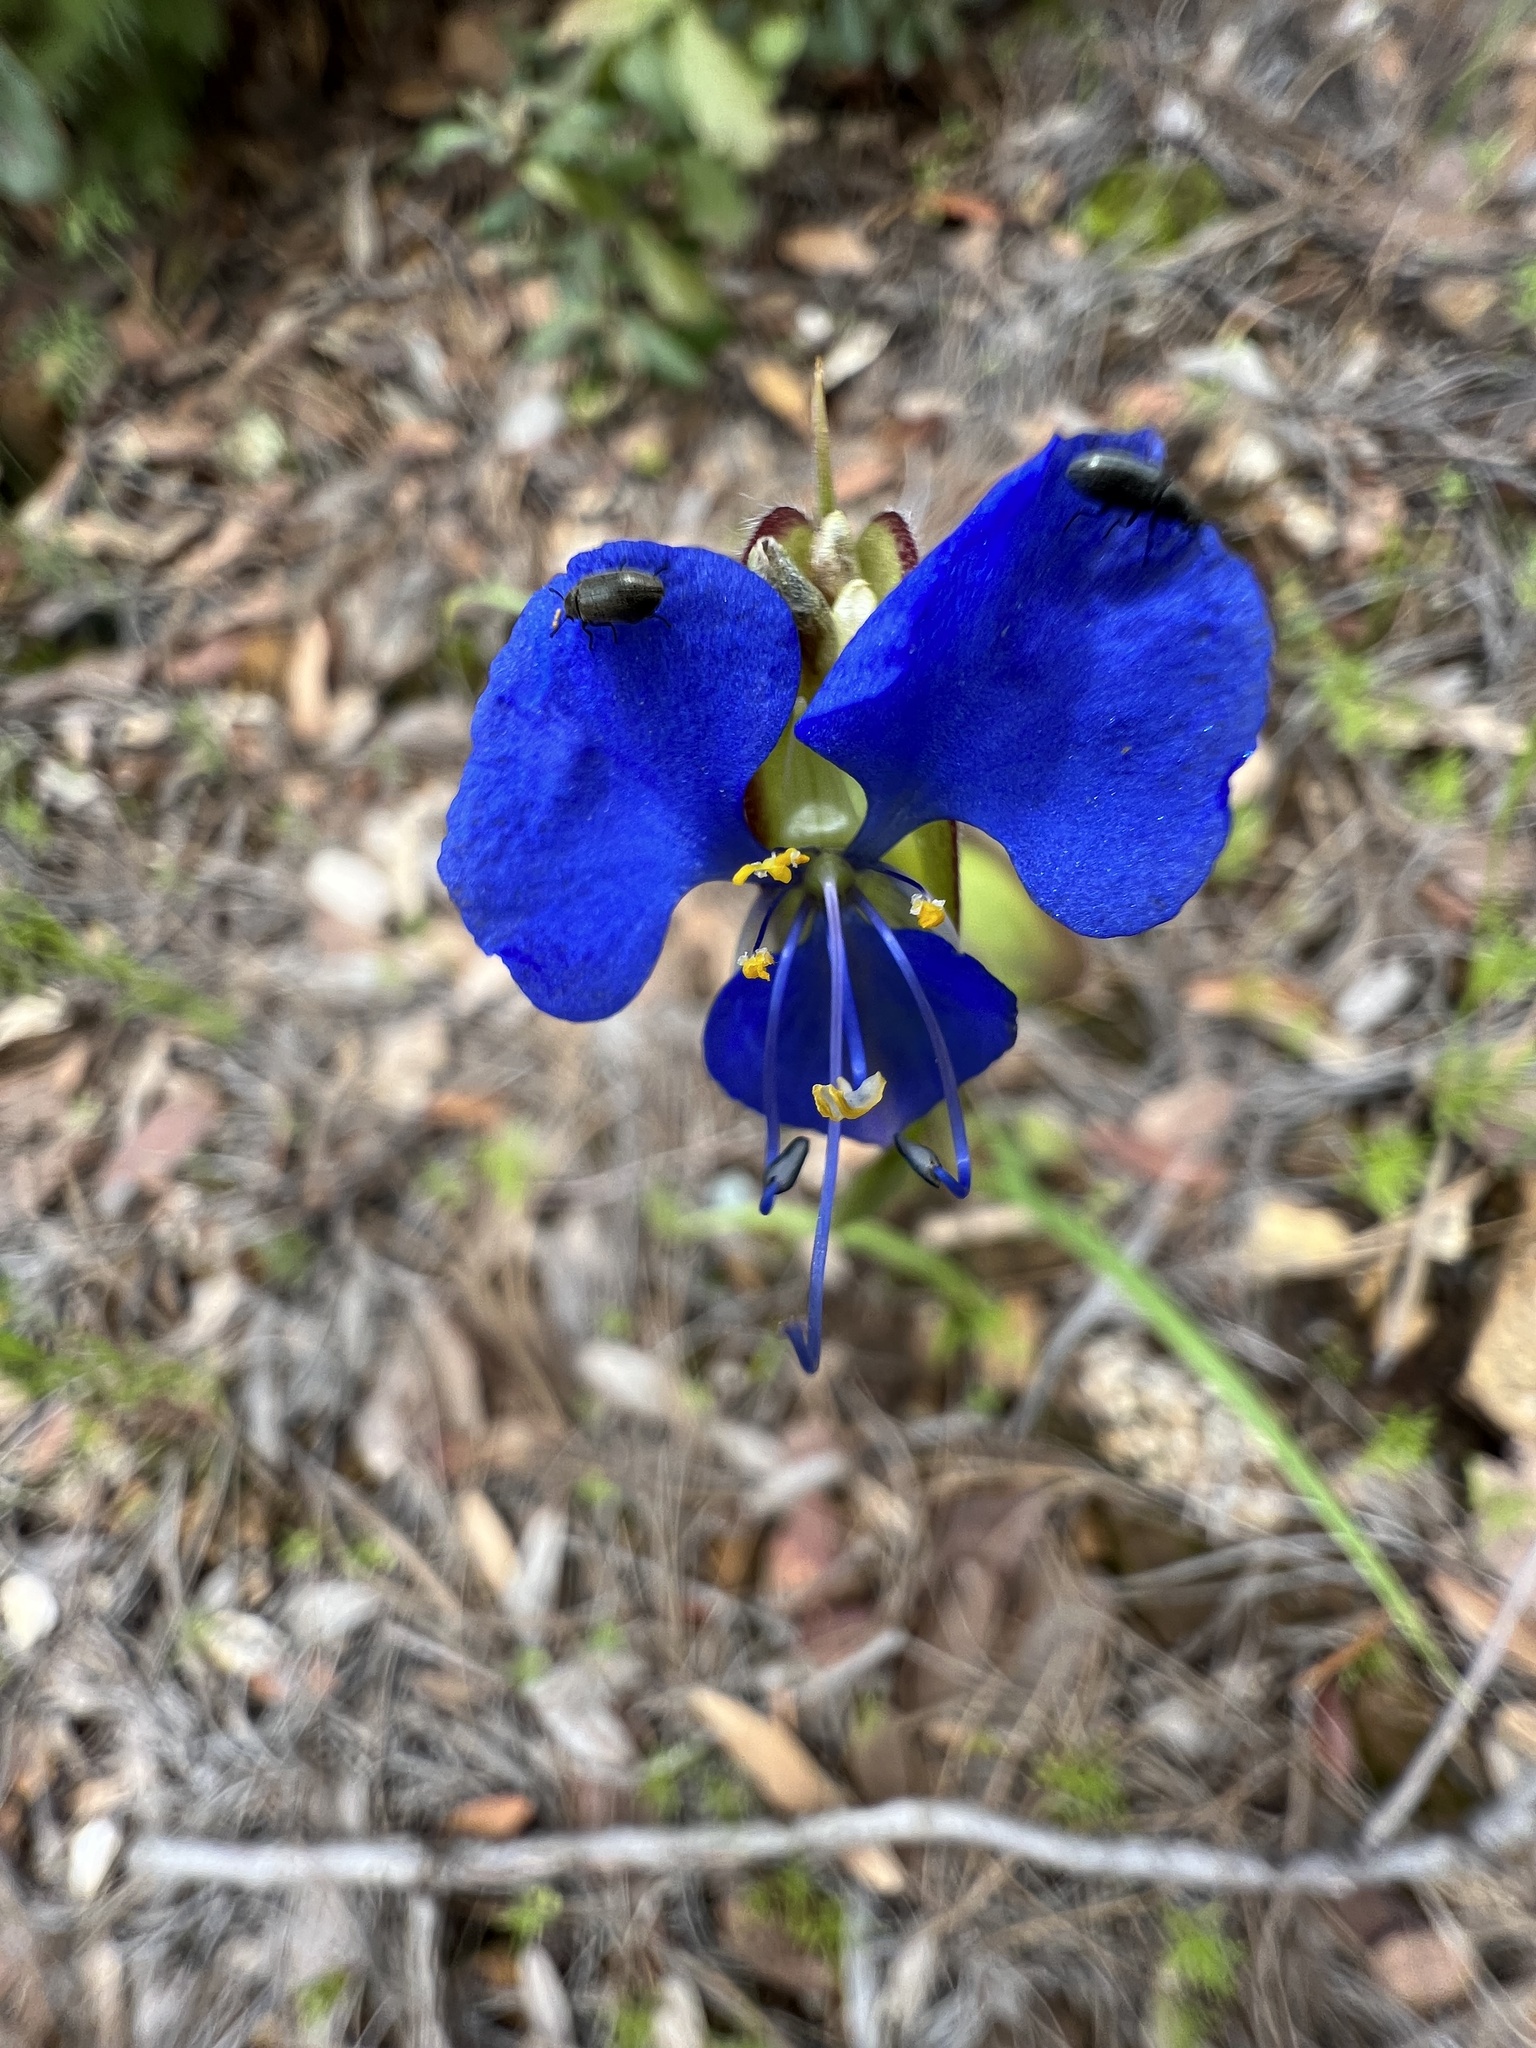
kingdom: Plantae
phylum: Tracheophyta
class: Liliopsida
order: Commelinales
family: Commelinaceae
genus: Commelina
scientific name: Commelina dianthifolia
